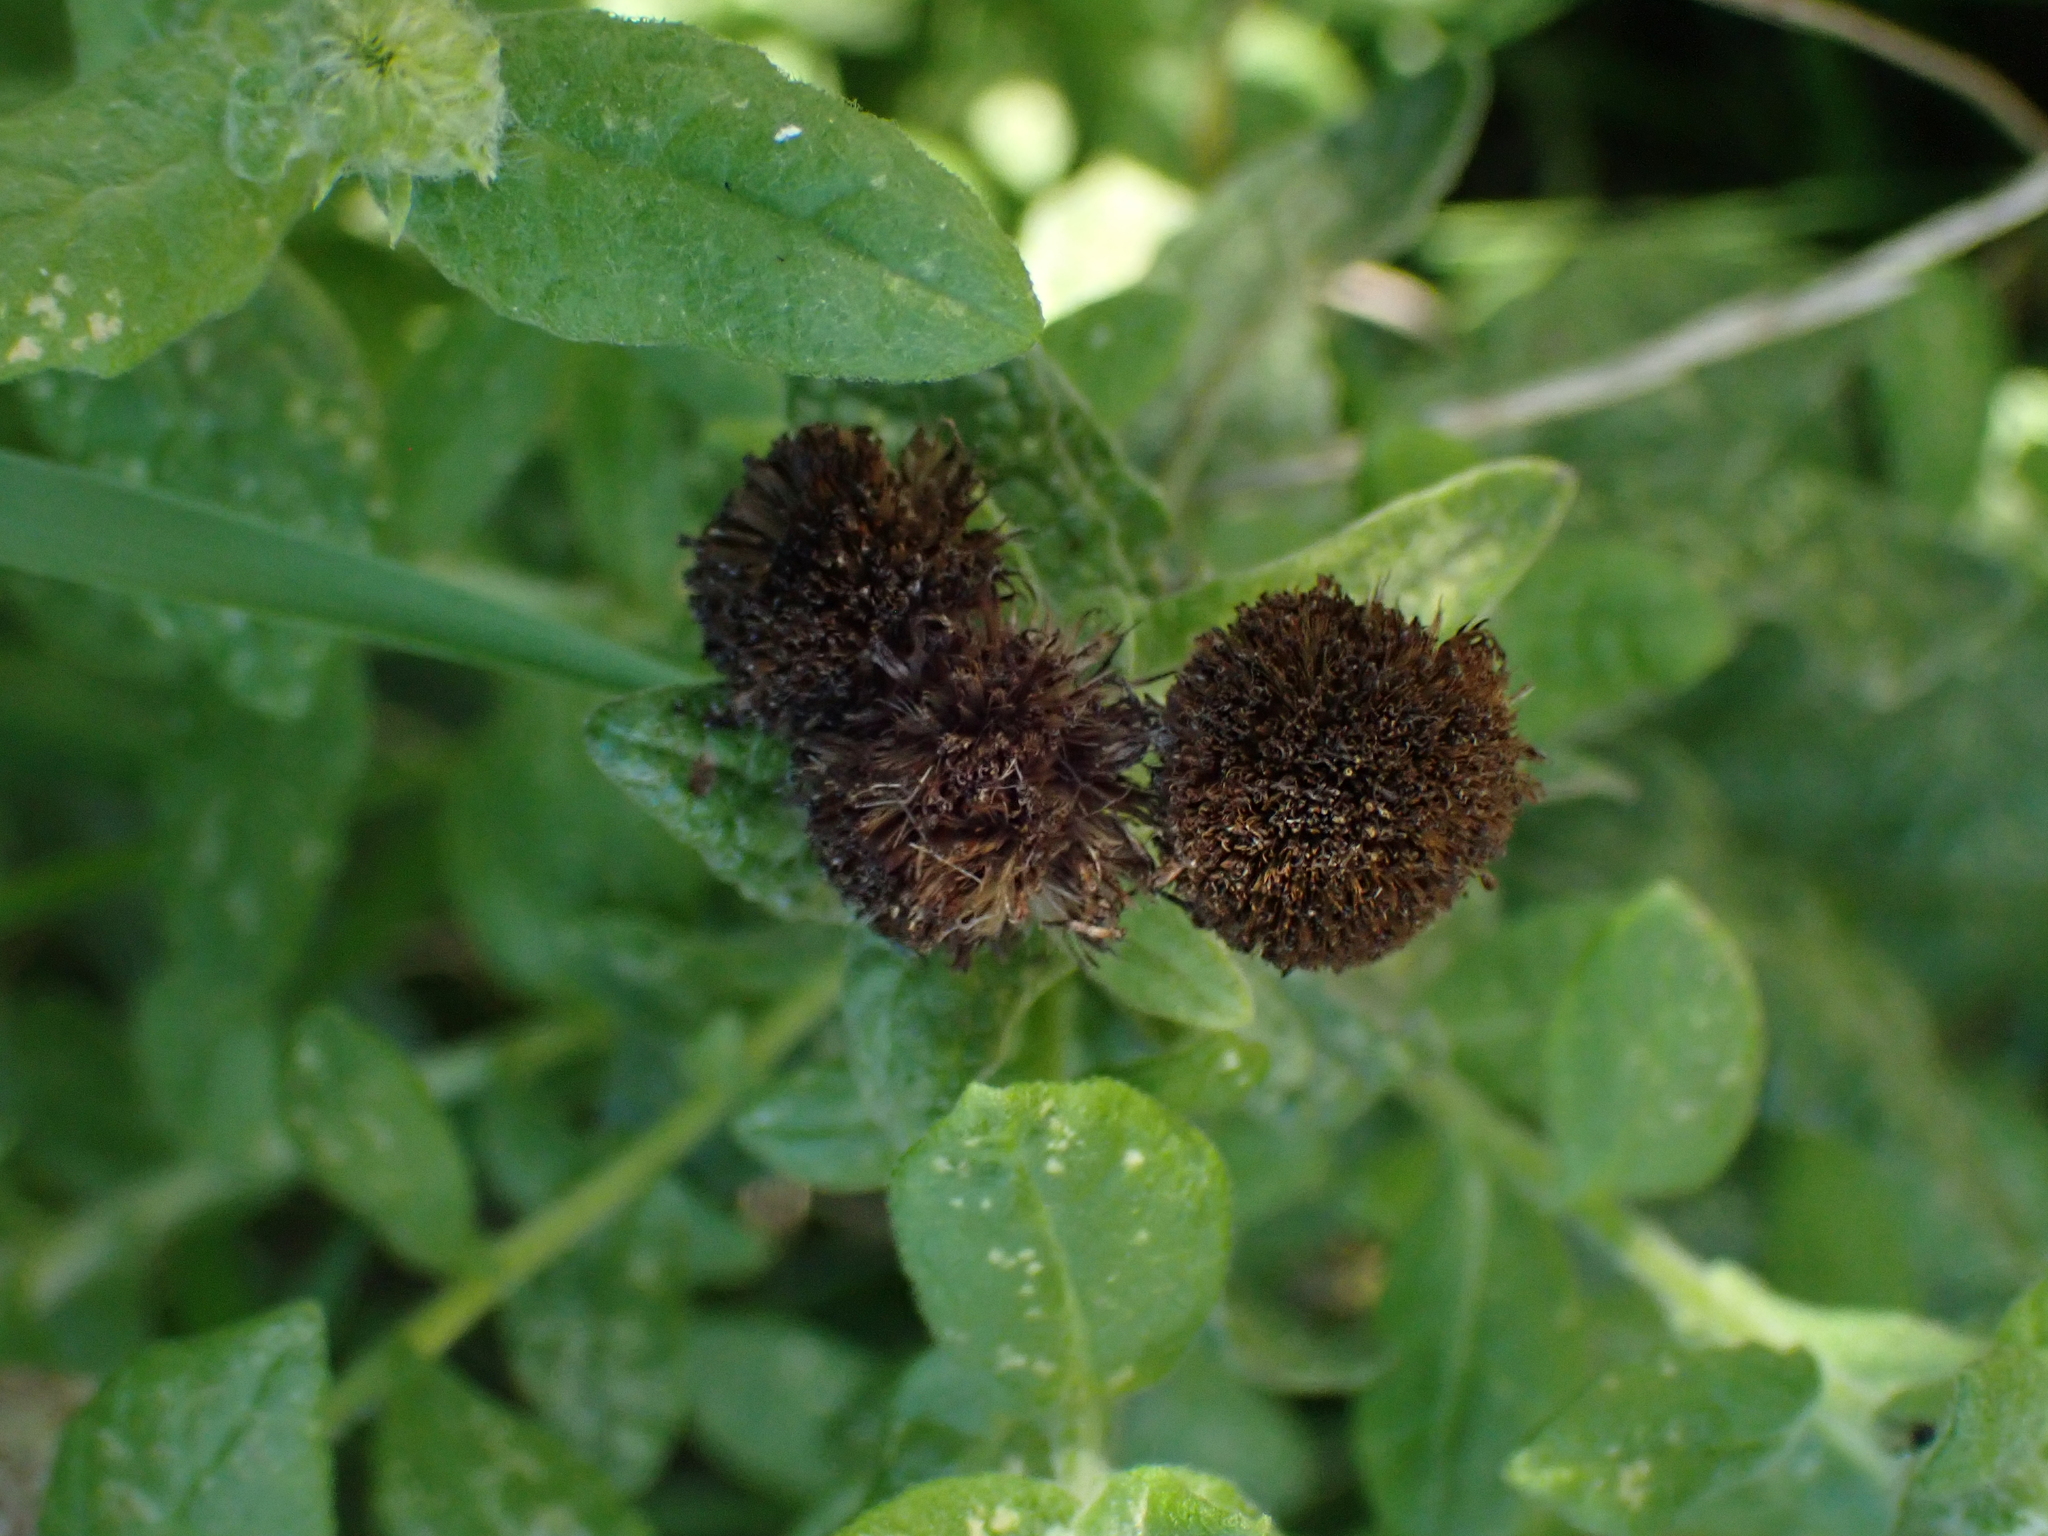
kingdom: Plantae
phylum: Tracheophyta
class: Magnoliopsida
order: Asterales
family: Asteraceae
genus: Pulicaria
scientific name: Pulicaria dysenterica
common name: Common fleabane
